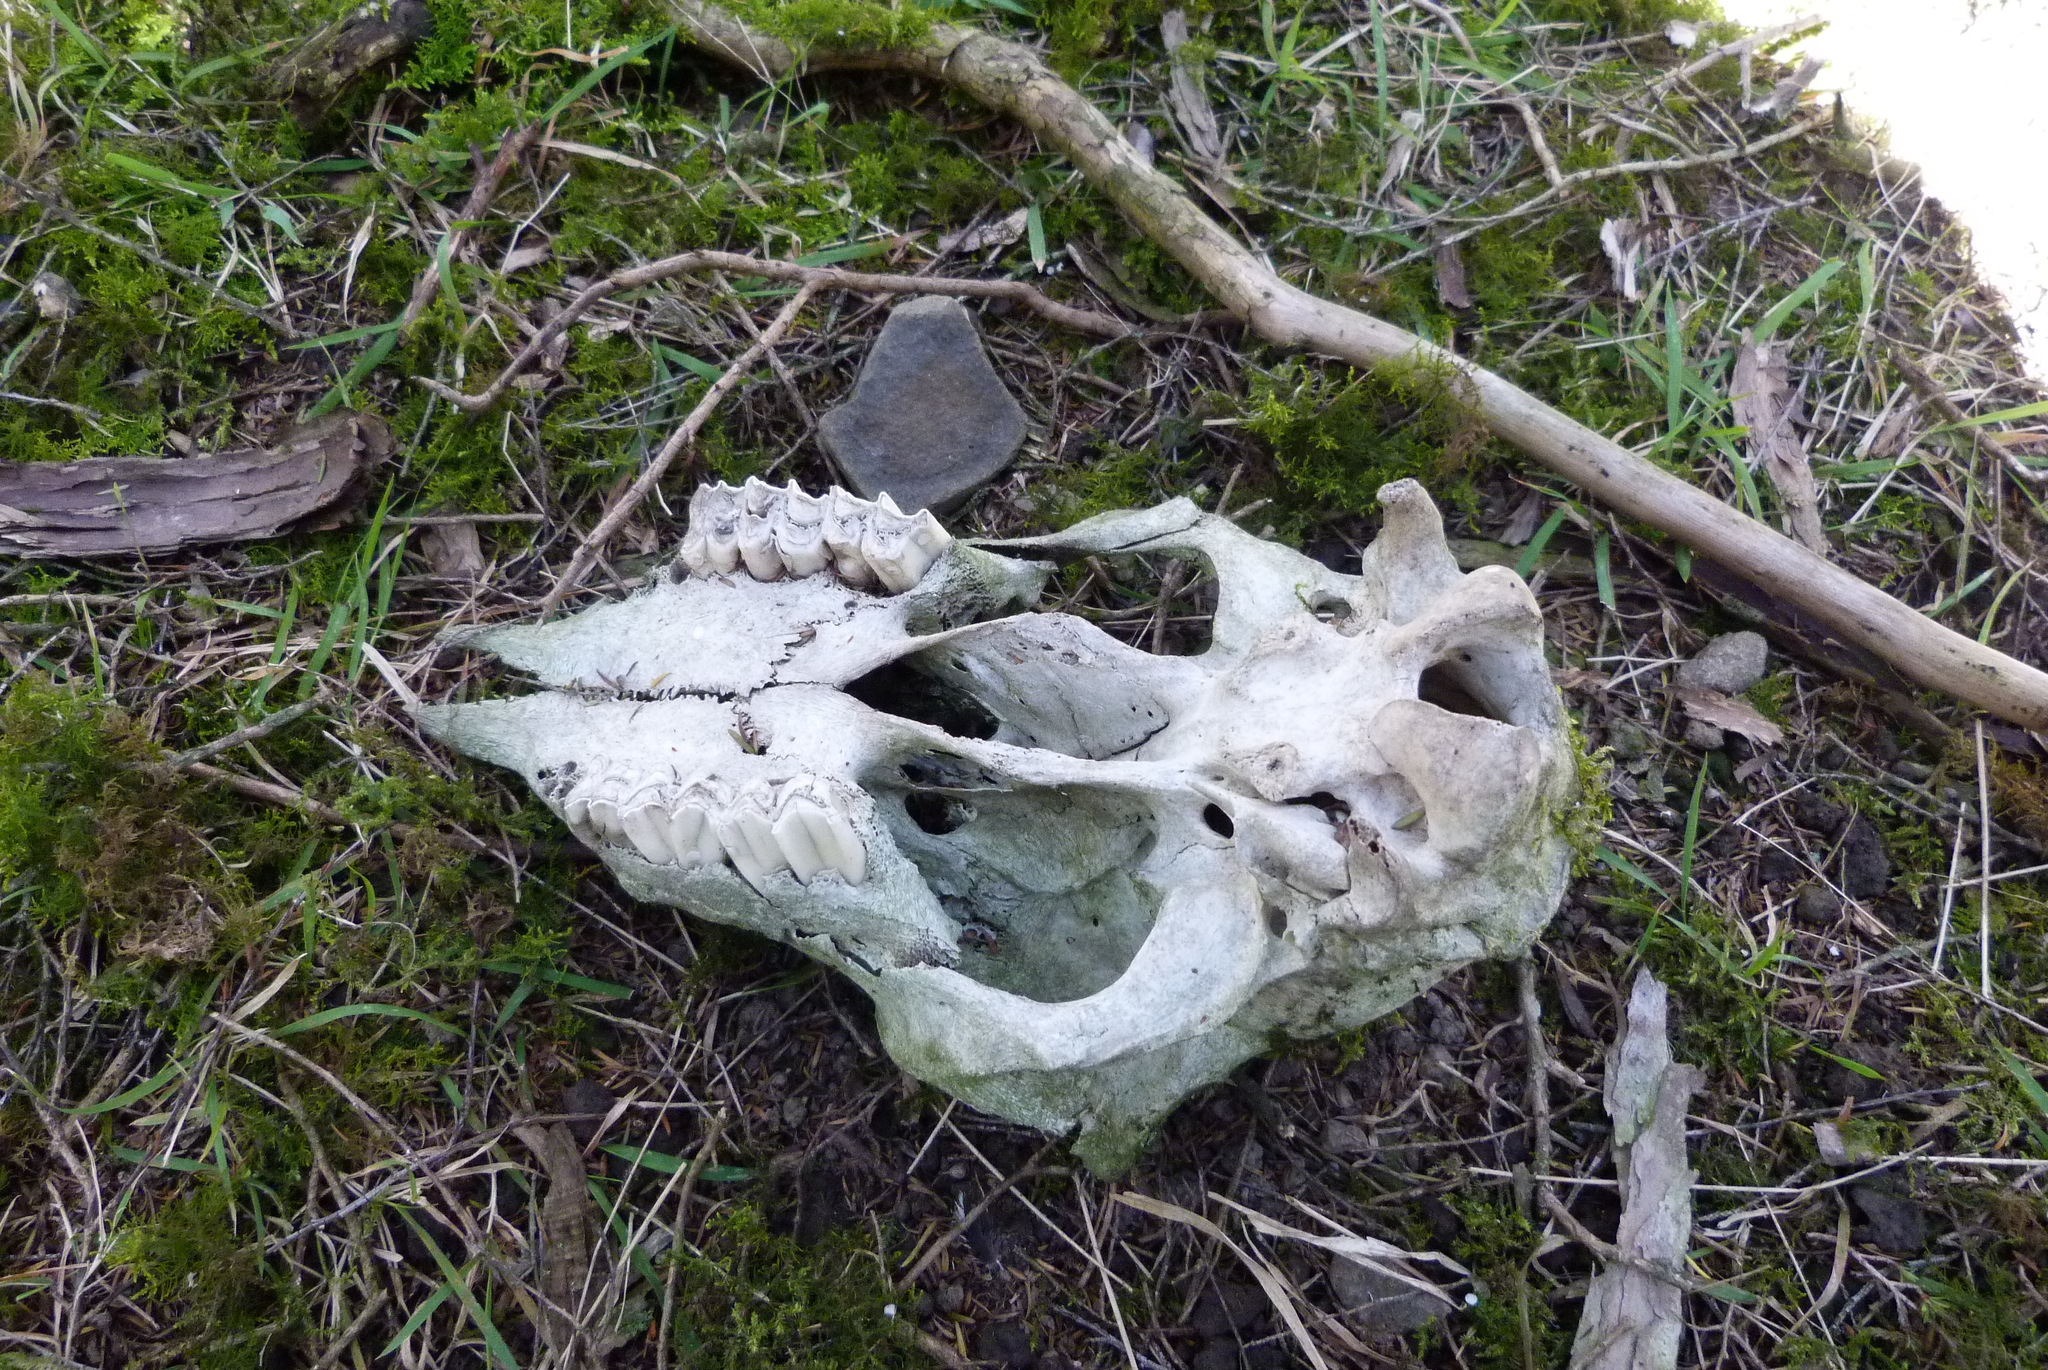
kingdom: Animalia
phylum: Chordata
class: Mammalia
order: Artiodactyla
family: Bovidae
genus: Ovis
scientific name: Ovis aries
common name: Domestic sheep
